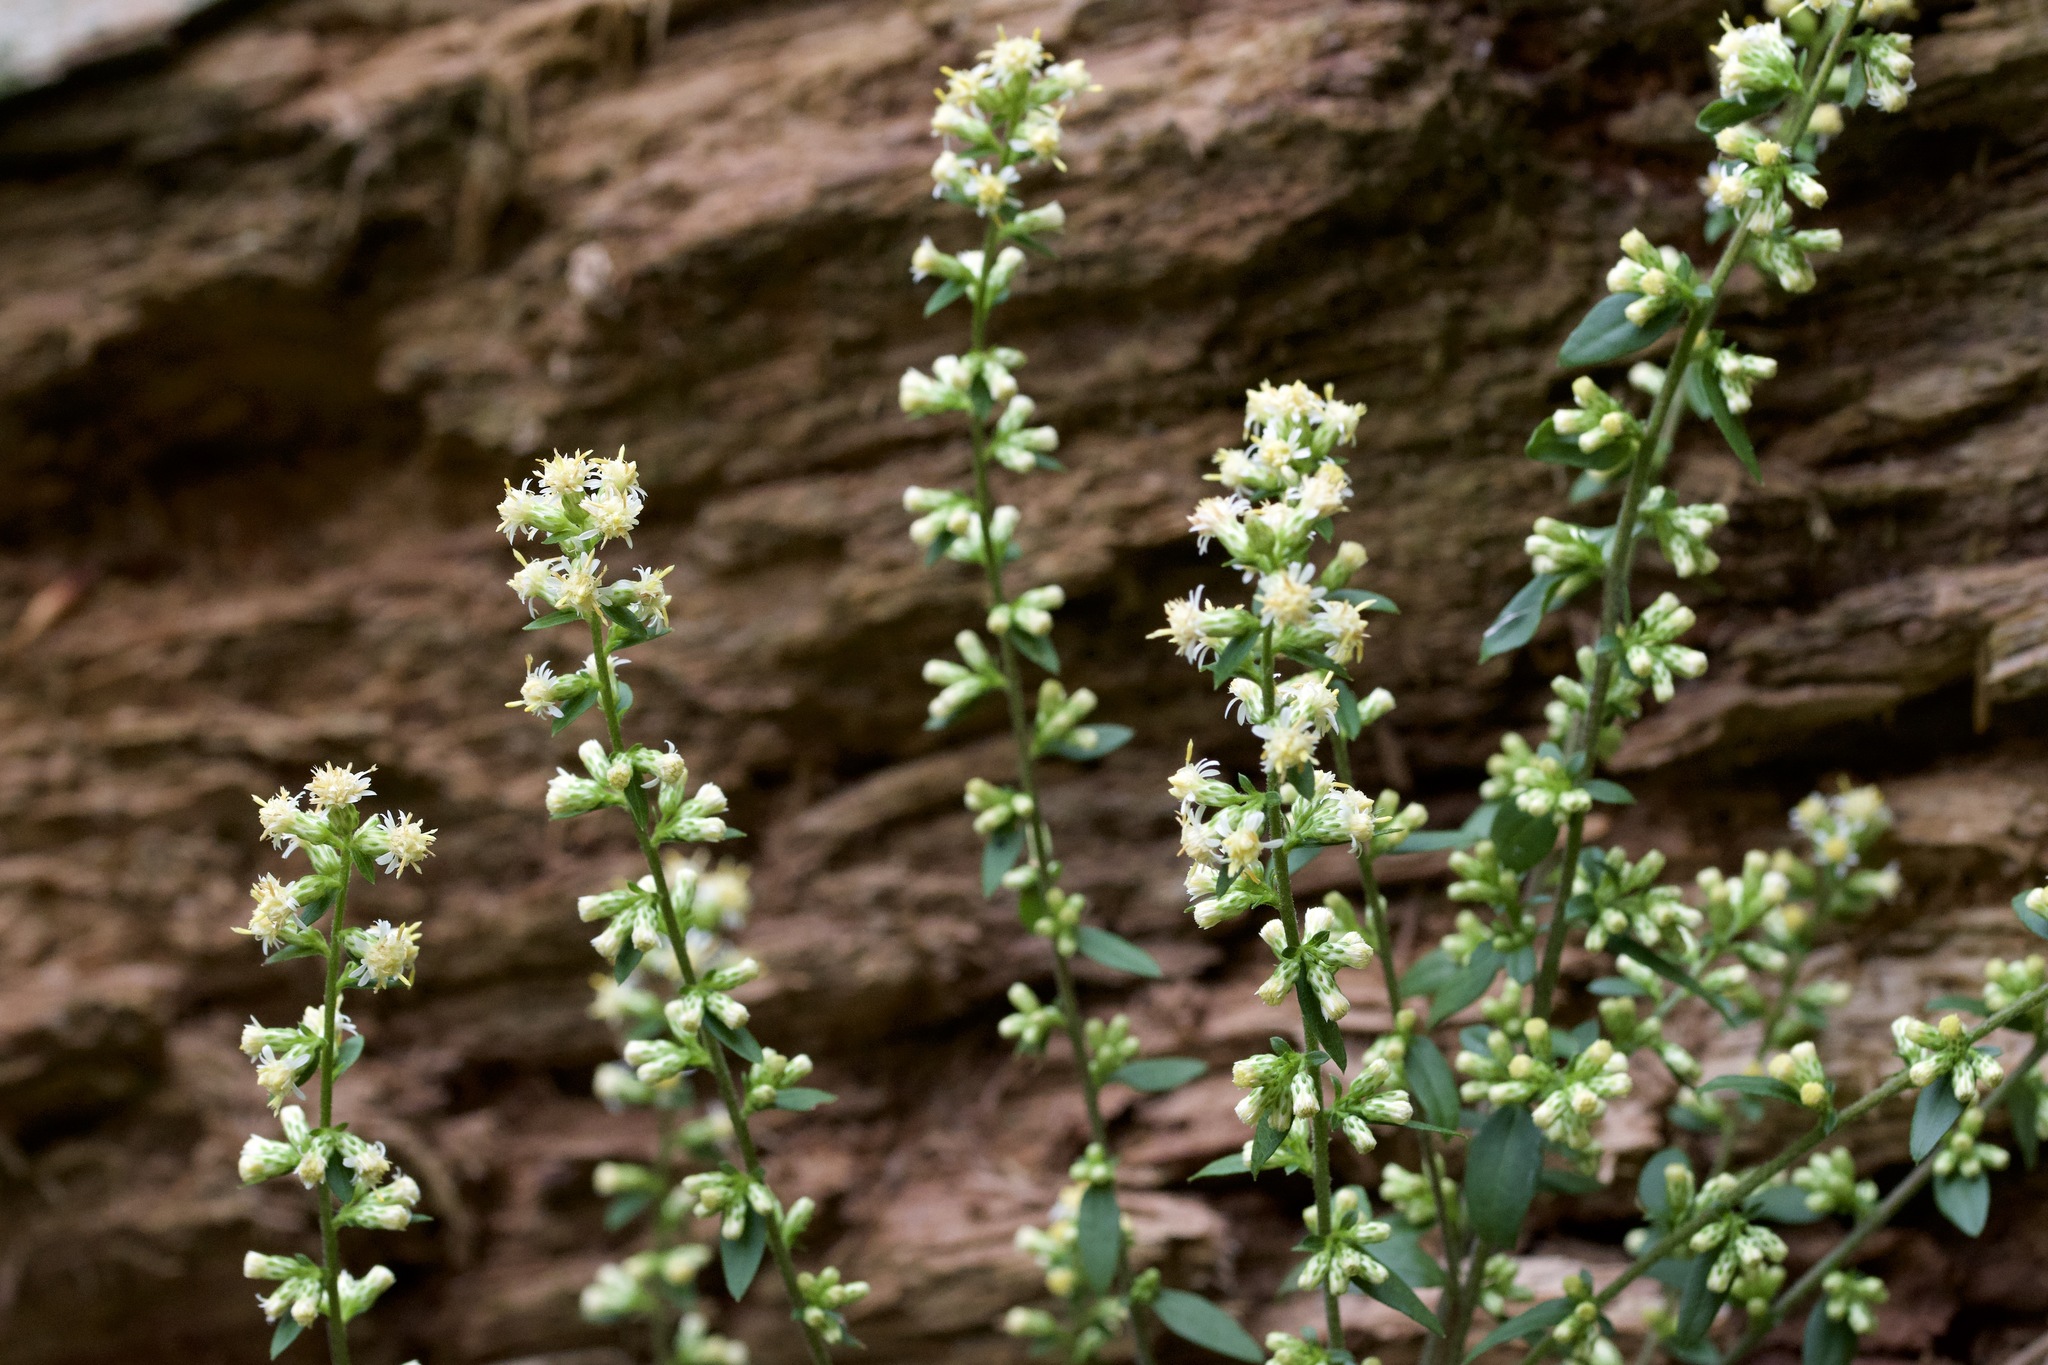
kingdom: Plantae
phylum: Tracheophyta
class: Magnoliopsida
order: Asterales
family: Asteraceae
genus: Solidago
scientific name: Solidago bicolor
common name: Silverrod
